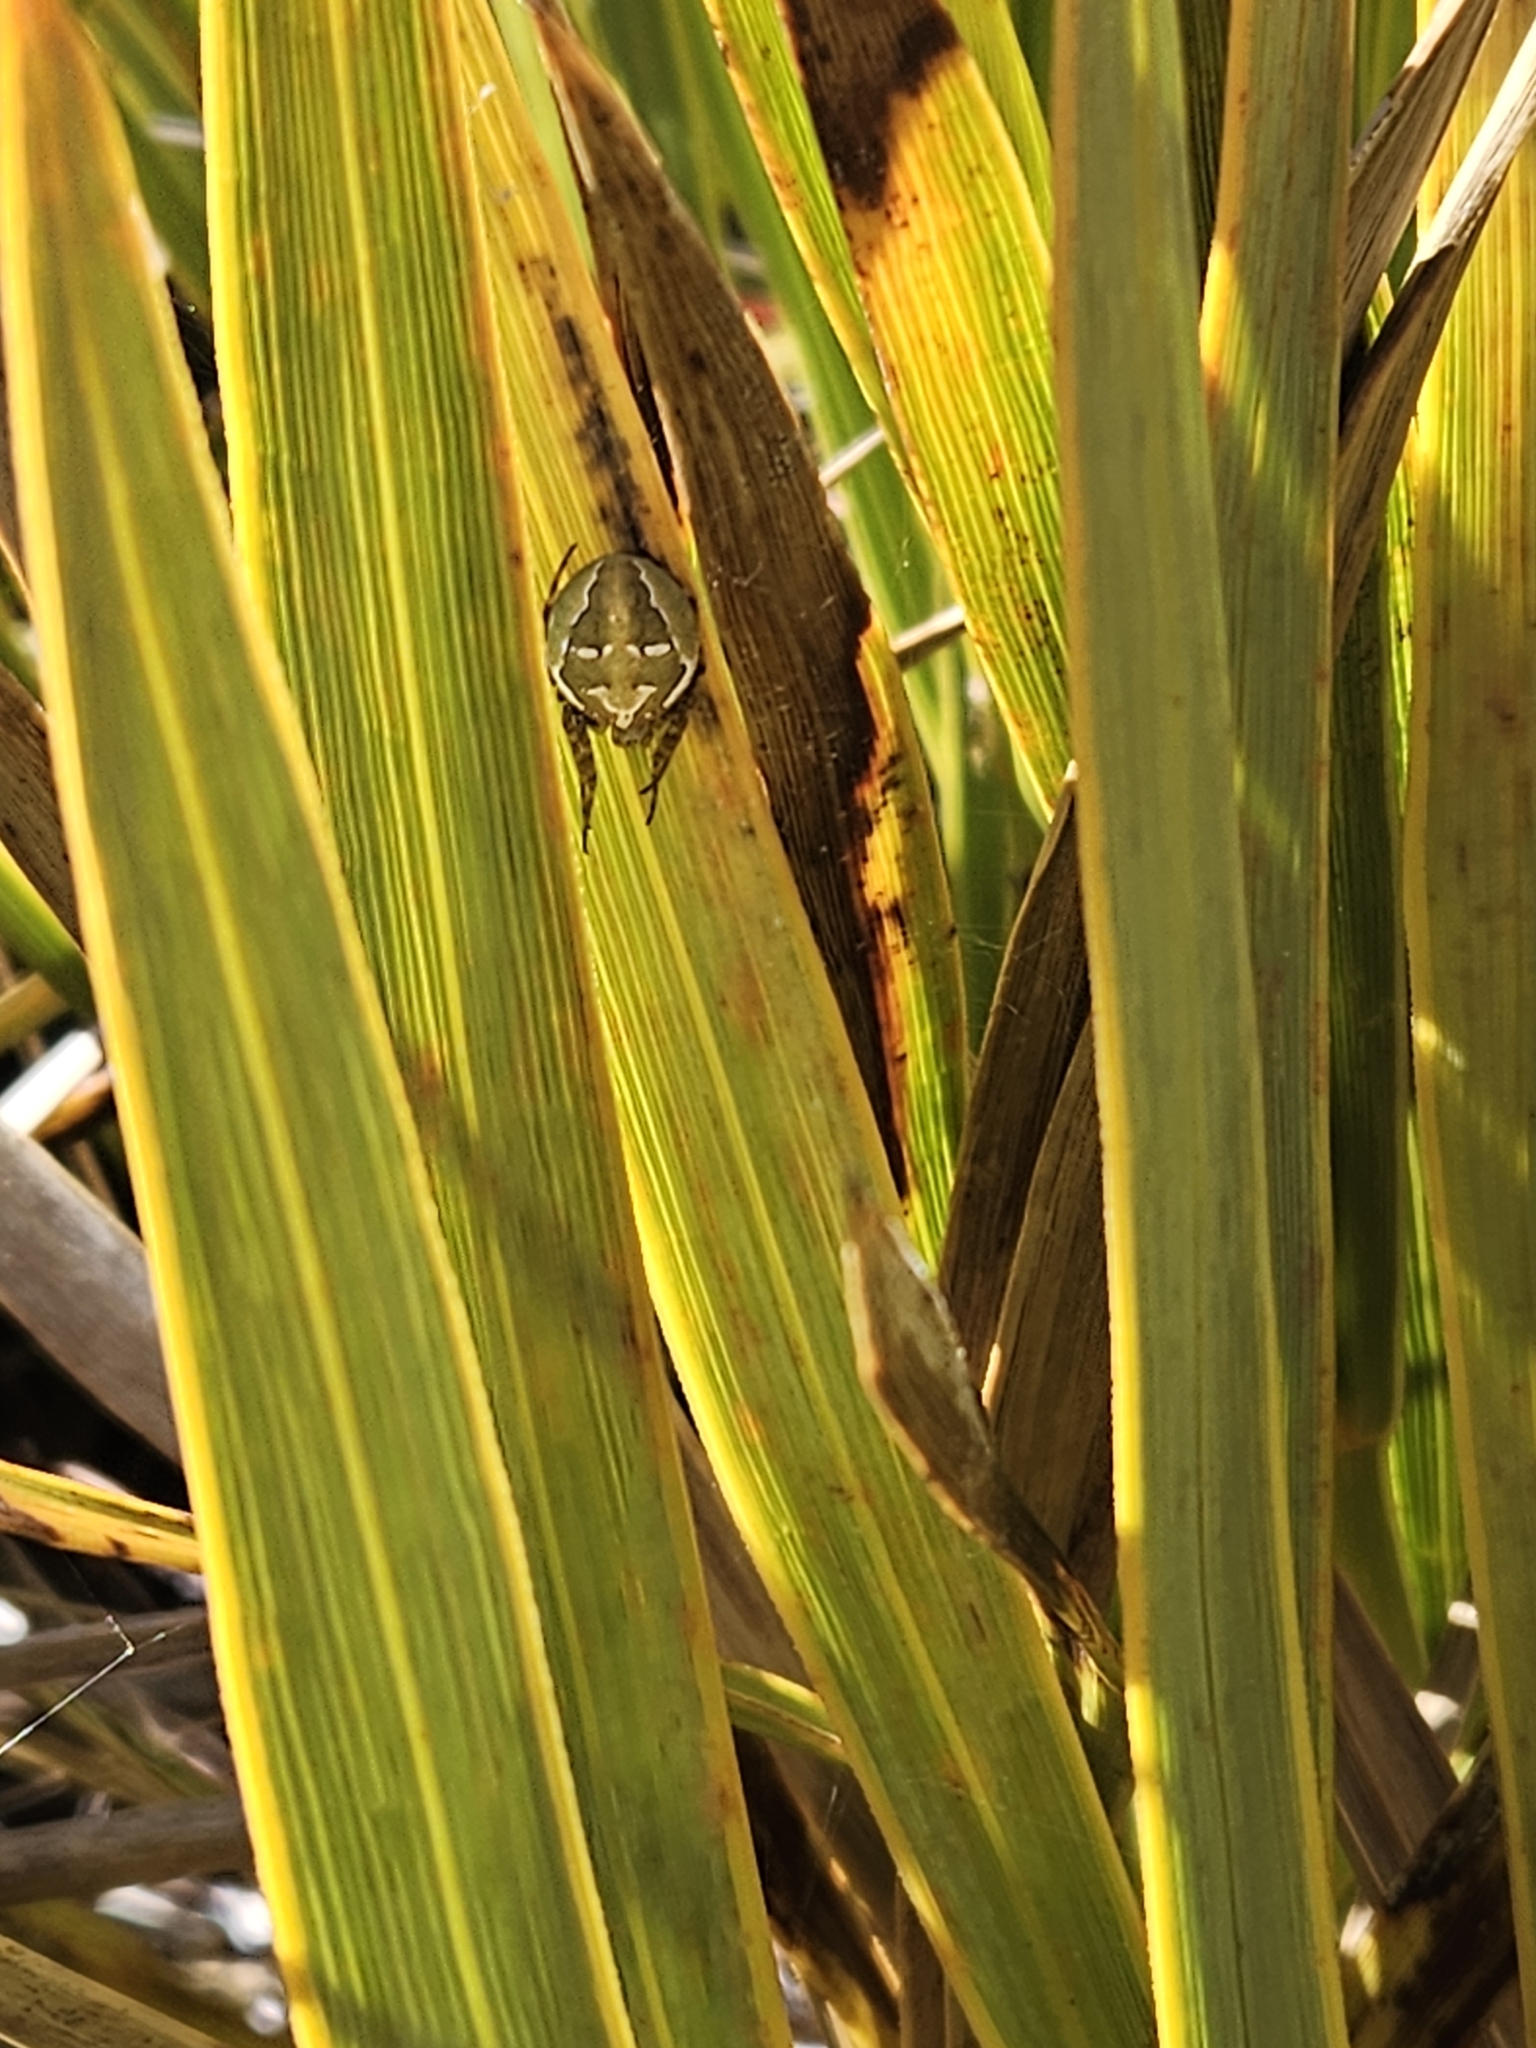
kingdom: Animalia
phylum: Arthropoda
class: Arachnida
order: Araneae
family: Araneidae
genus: Colaranea
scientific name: Colaranea verutum
